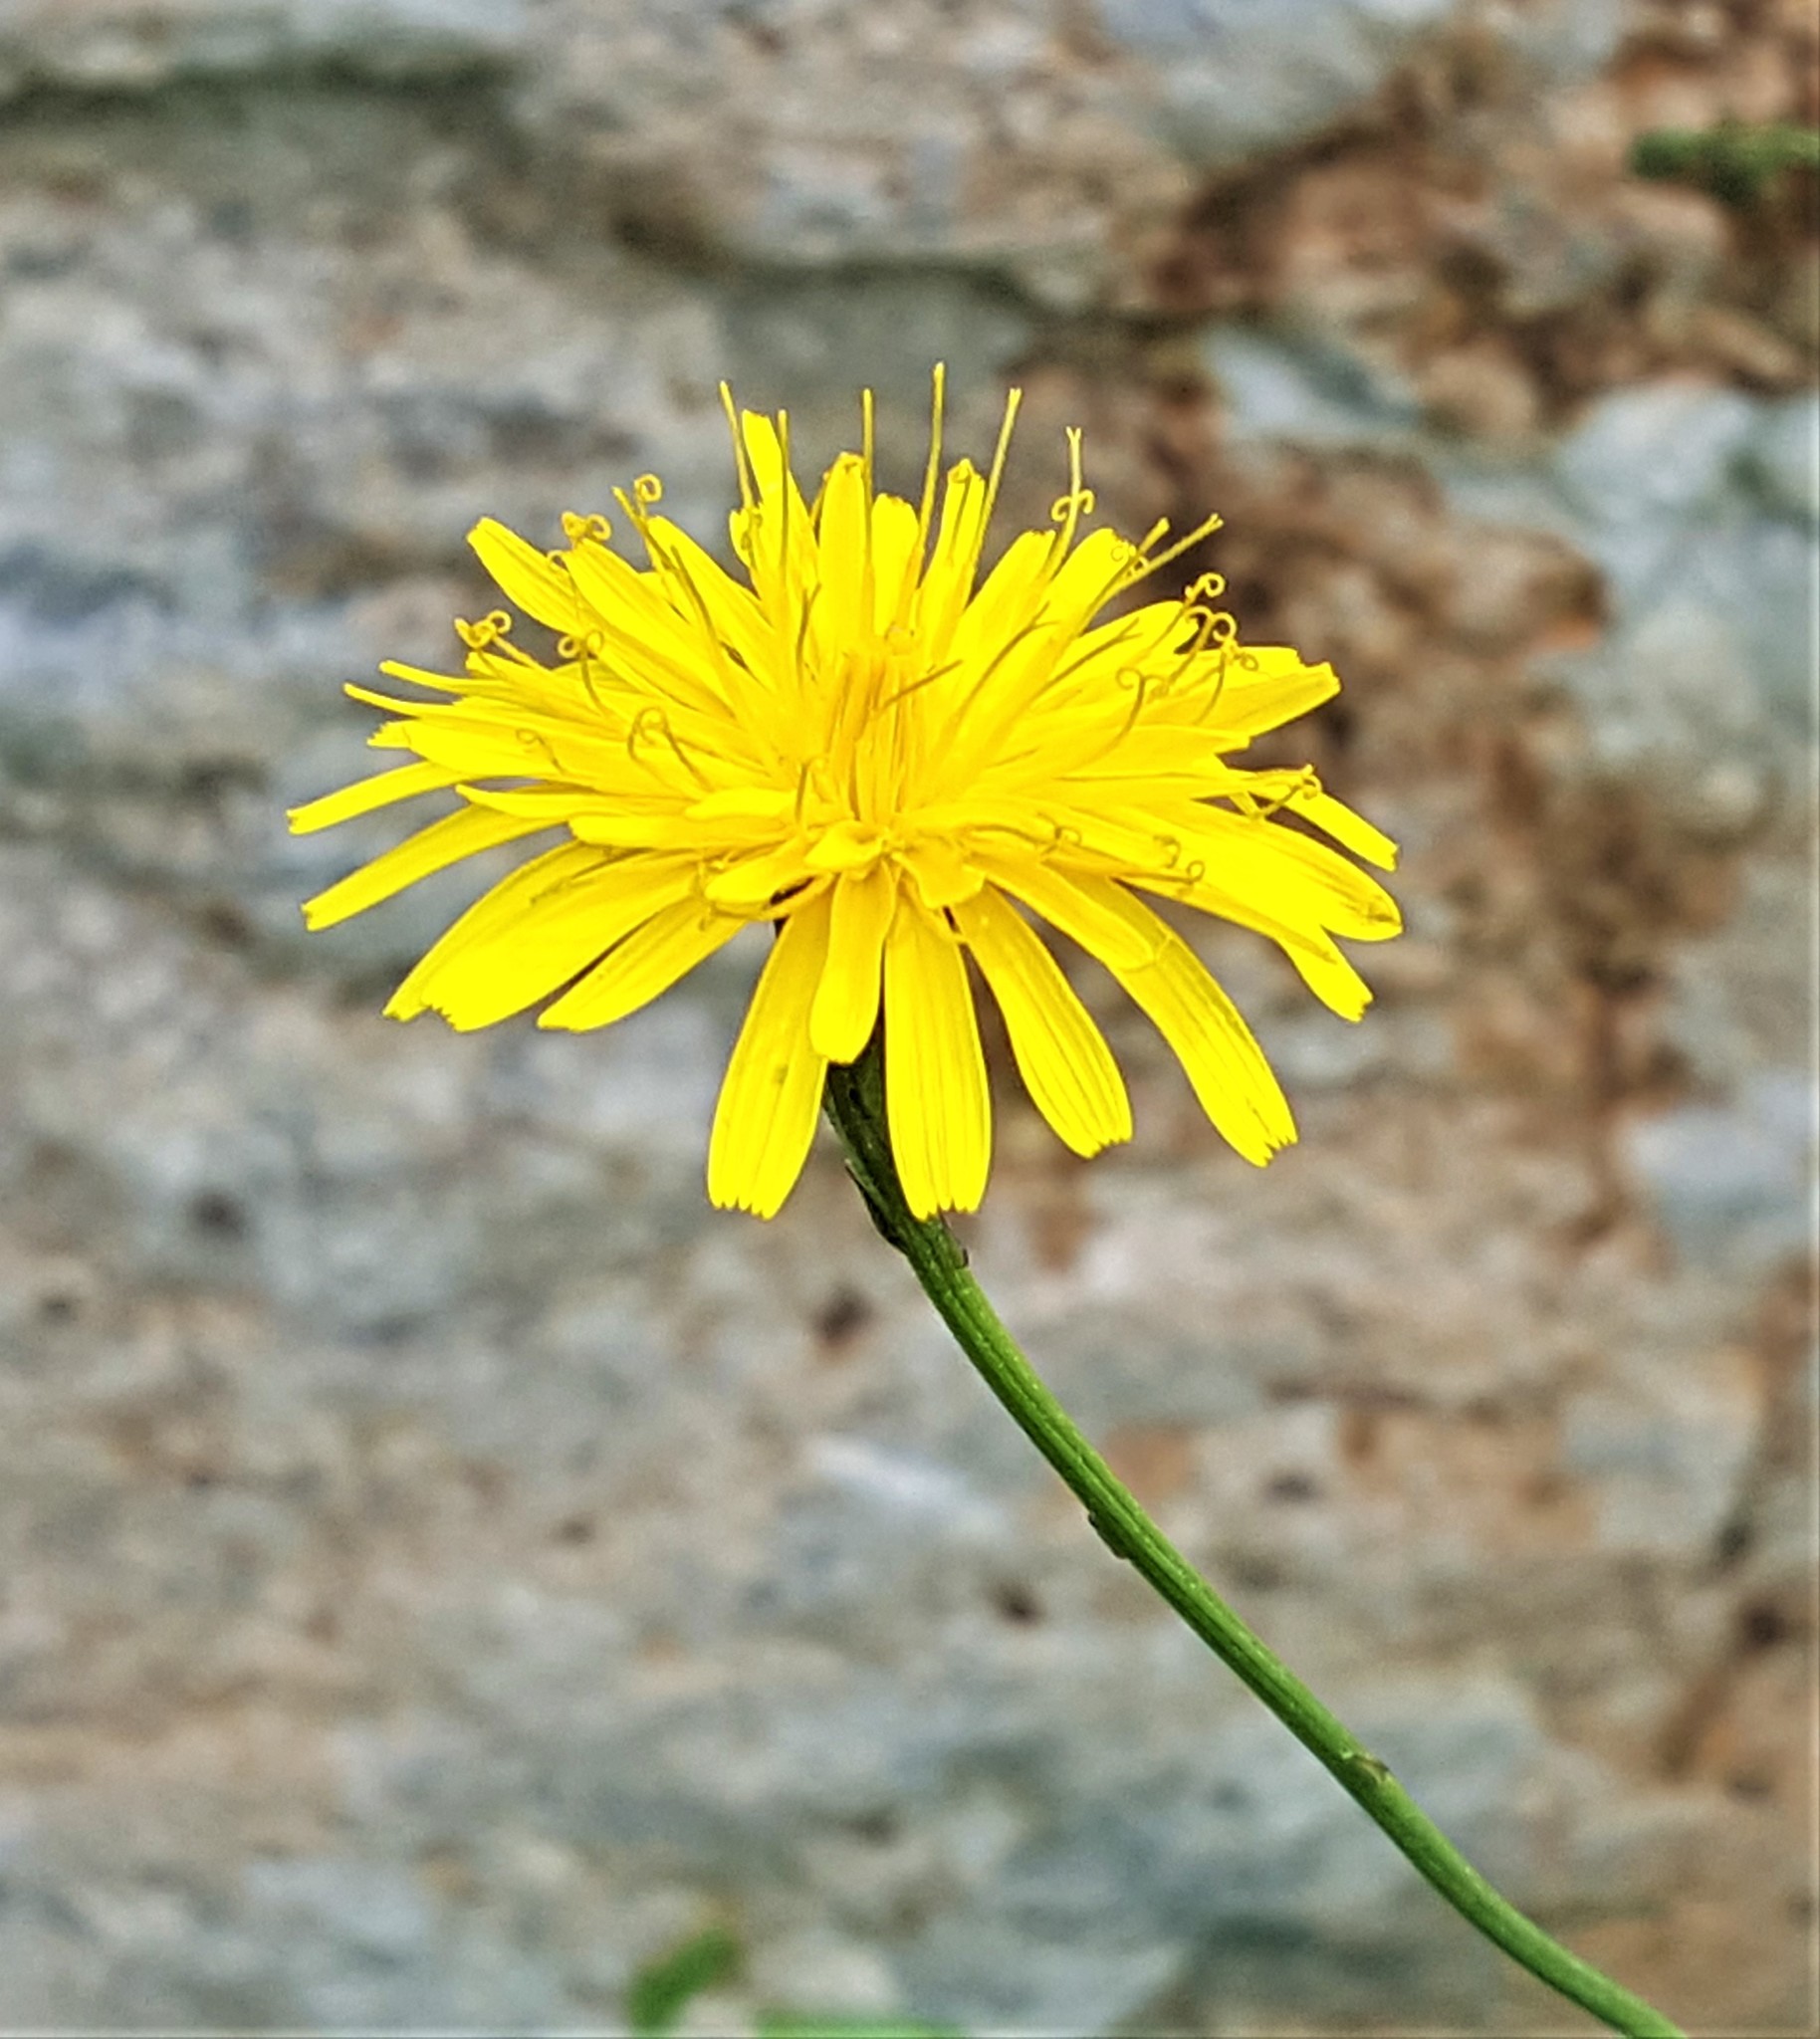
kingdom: Plantae
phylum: Tracheophyta
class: Magnoliopsida
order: Asterales
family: Asteraceae
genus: Scorzoneroides
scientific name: Scorzoneroides autumnalis
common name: Autumn hawkbit
